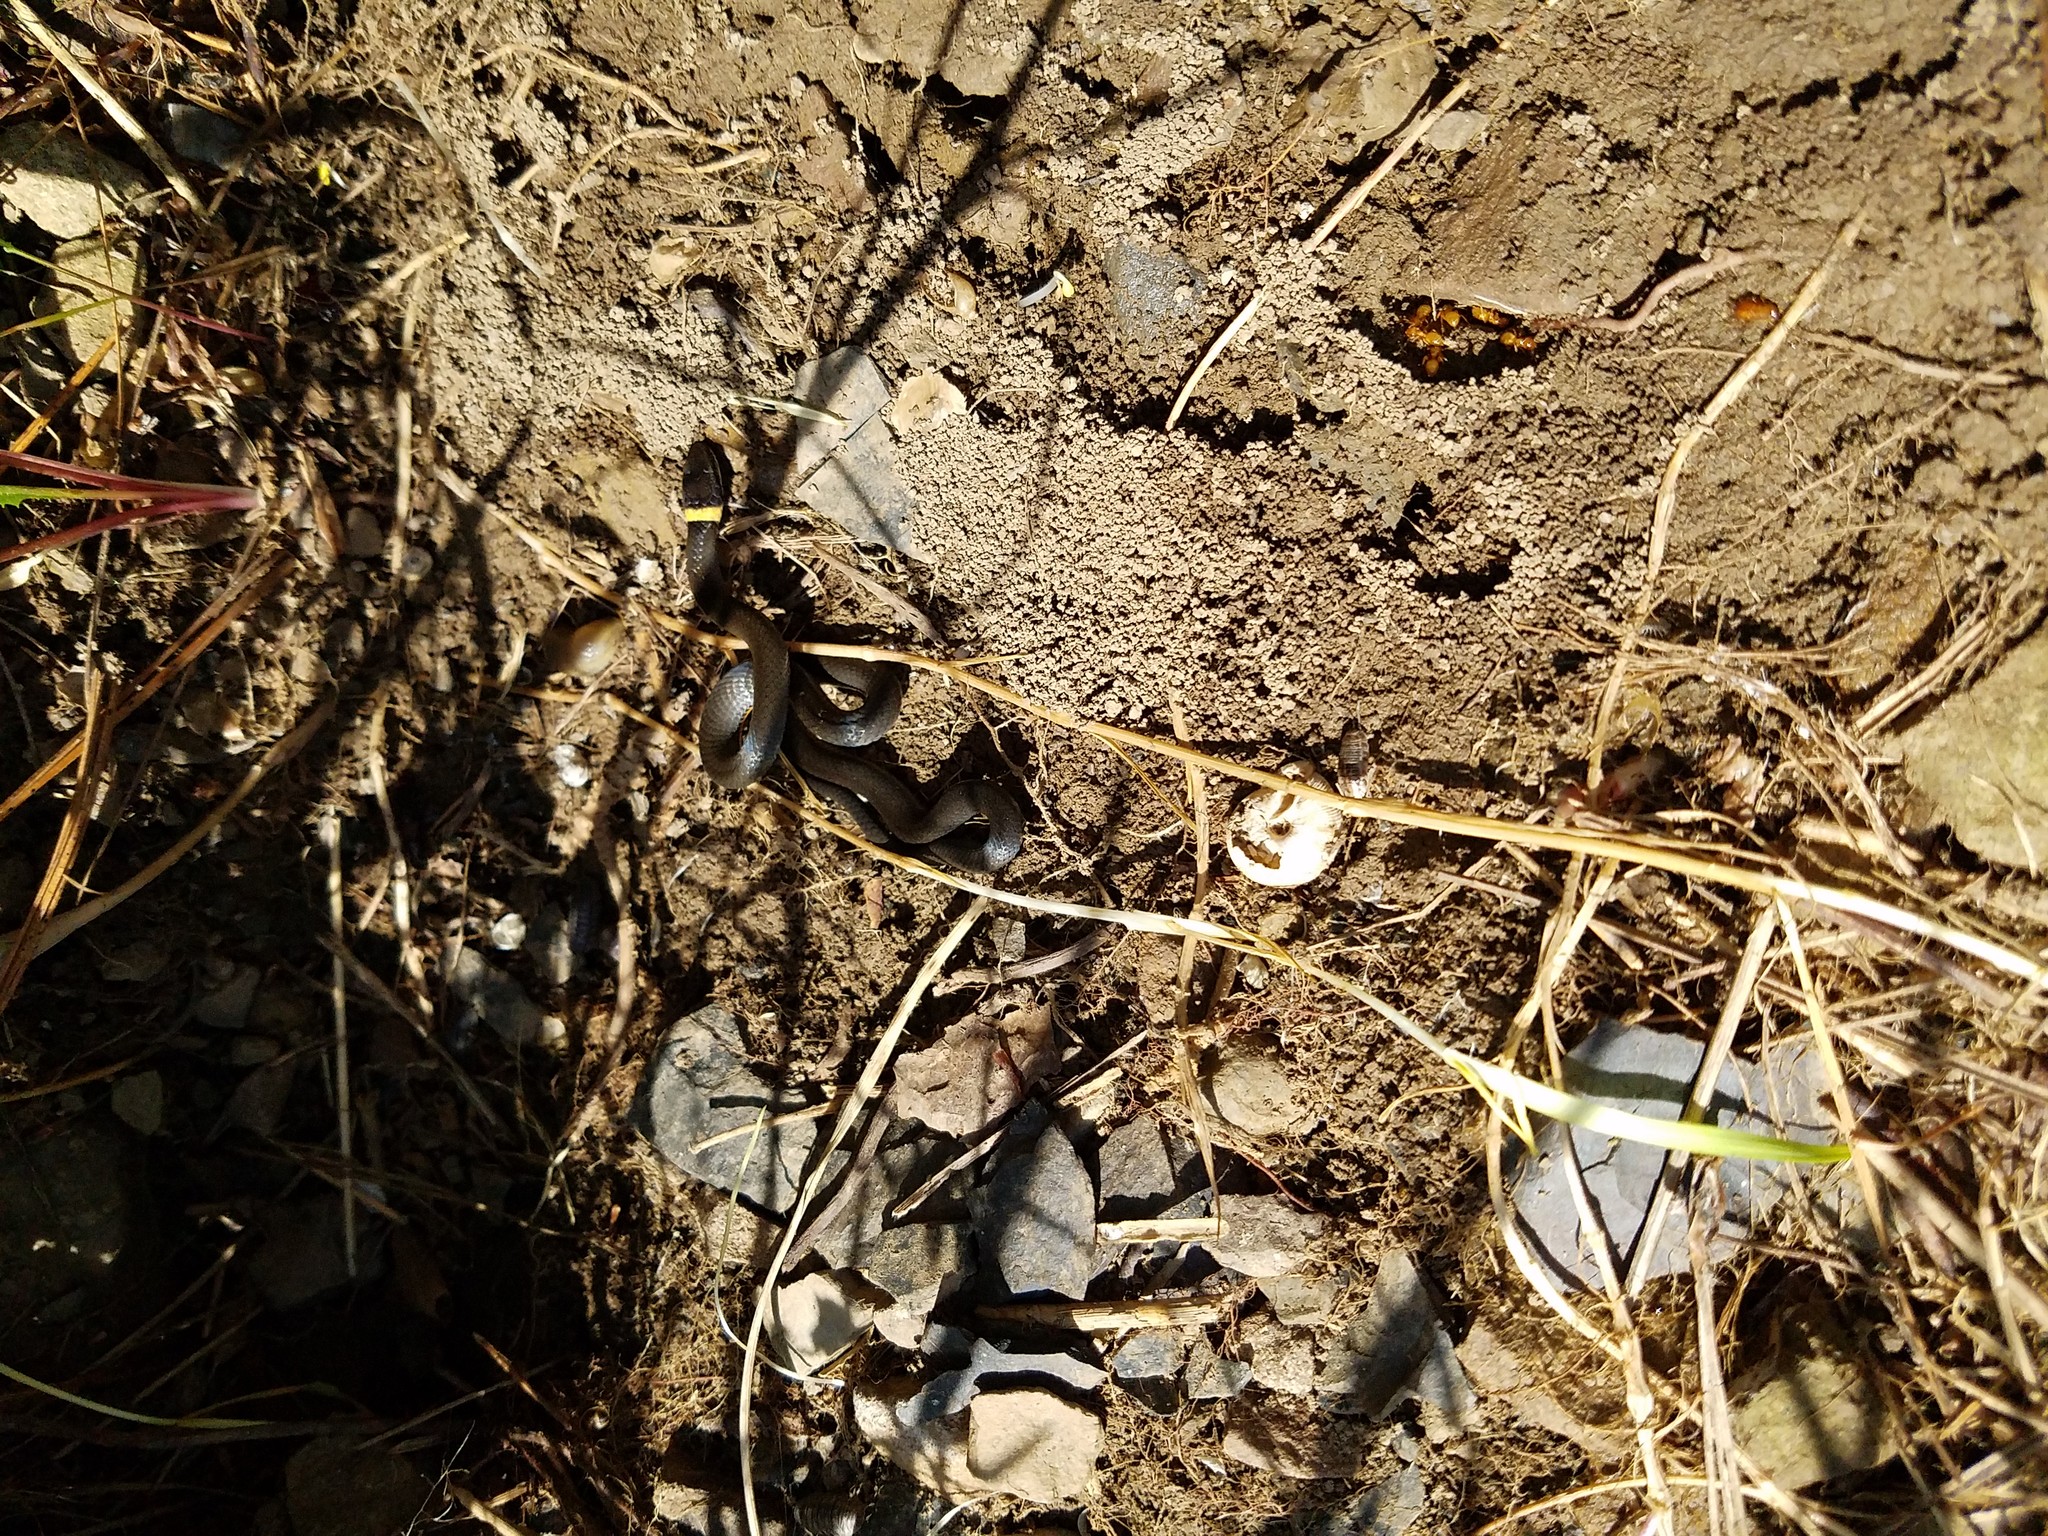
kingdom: Animalia
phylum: Chordata
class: Squamata
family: Colubridae
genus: Diadophis
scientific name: Diadophis punctatus
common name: Ringneck snake
